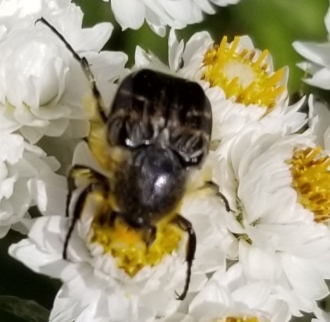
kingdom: Animalia
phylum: Arthropoda
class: Insecta
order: Coleoptera
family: Scarabaeidae
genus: Trichiotinus
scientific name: Trichiotinus assimilis
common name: Bee-mimic beetle
